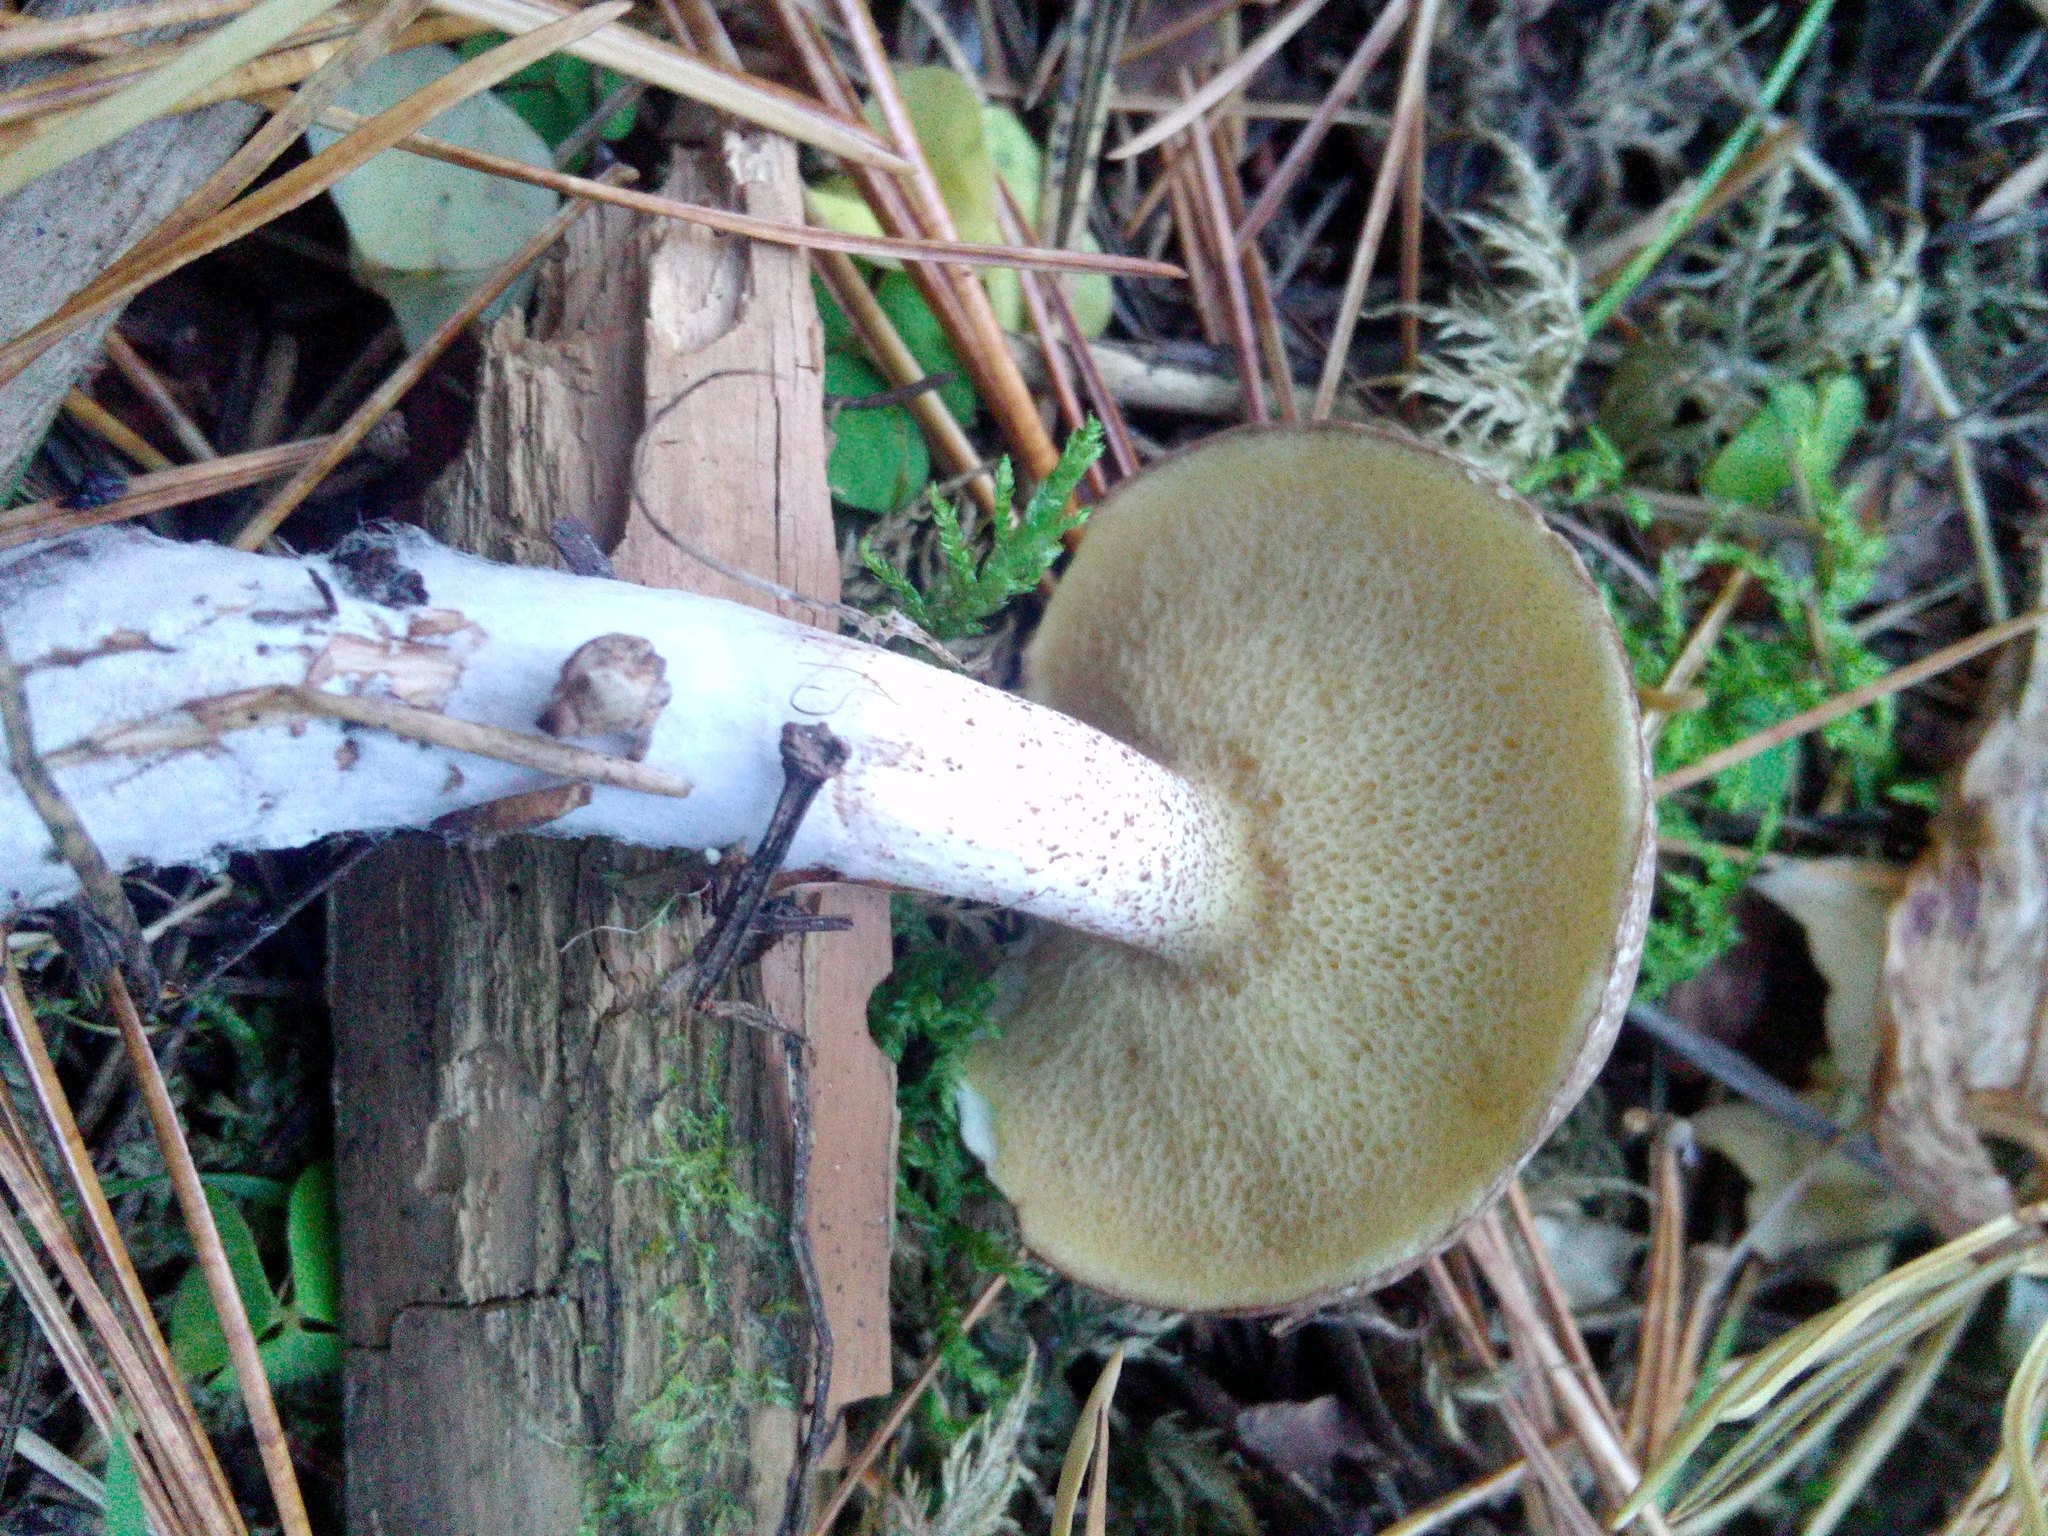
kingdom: Fungi
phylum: Basidiomycota
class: Agaricomycetes
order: Boletales
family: Suillaceae
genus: Suillus
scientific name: Suillus placidus
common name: Slippery white bolete
